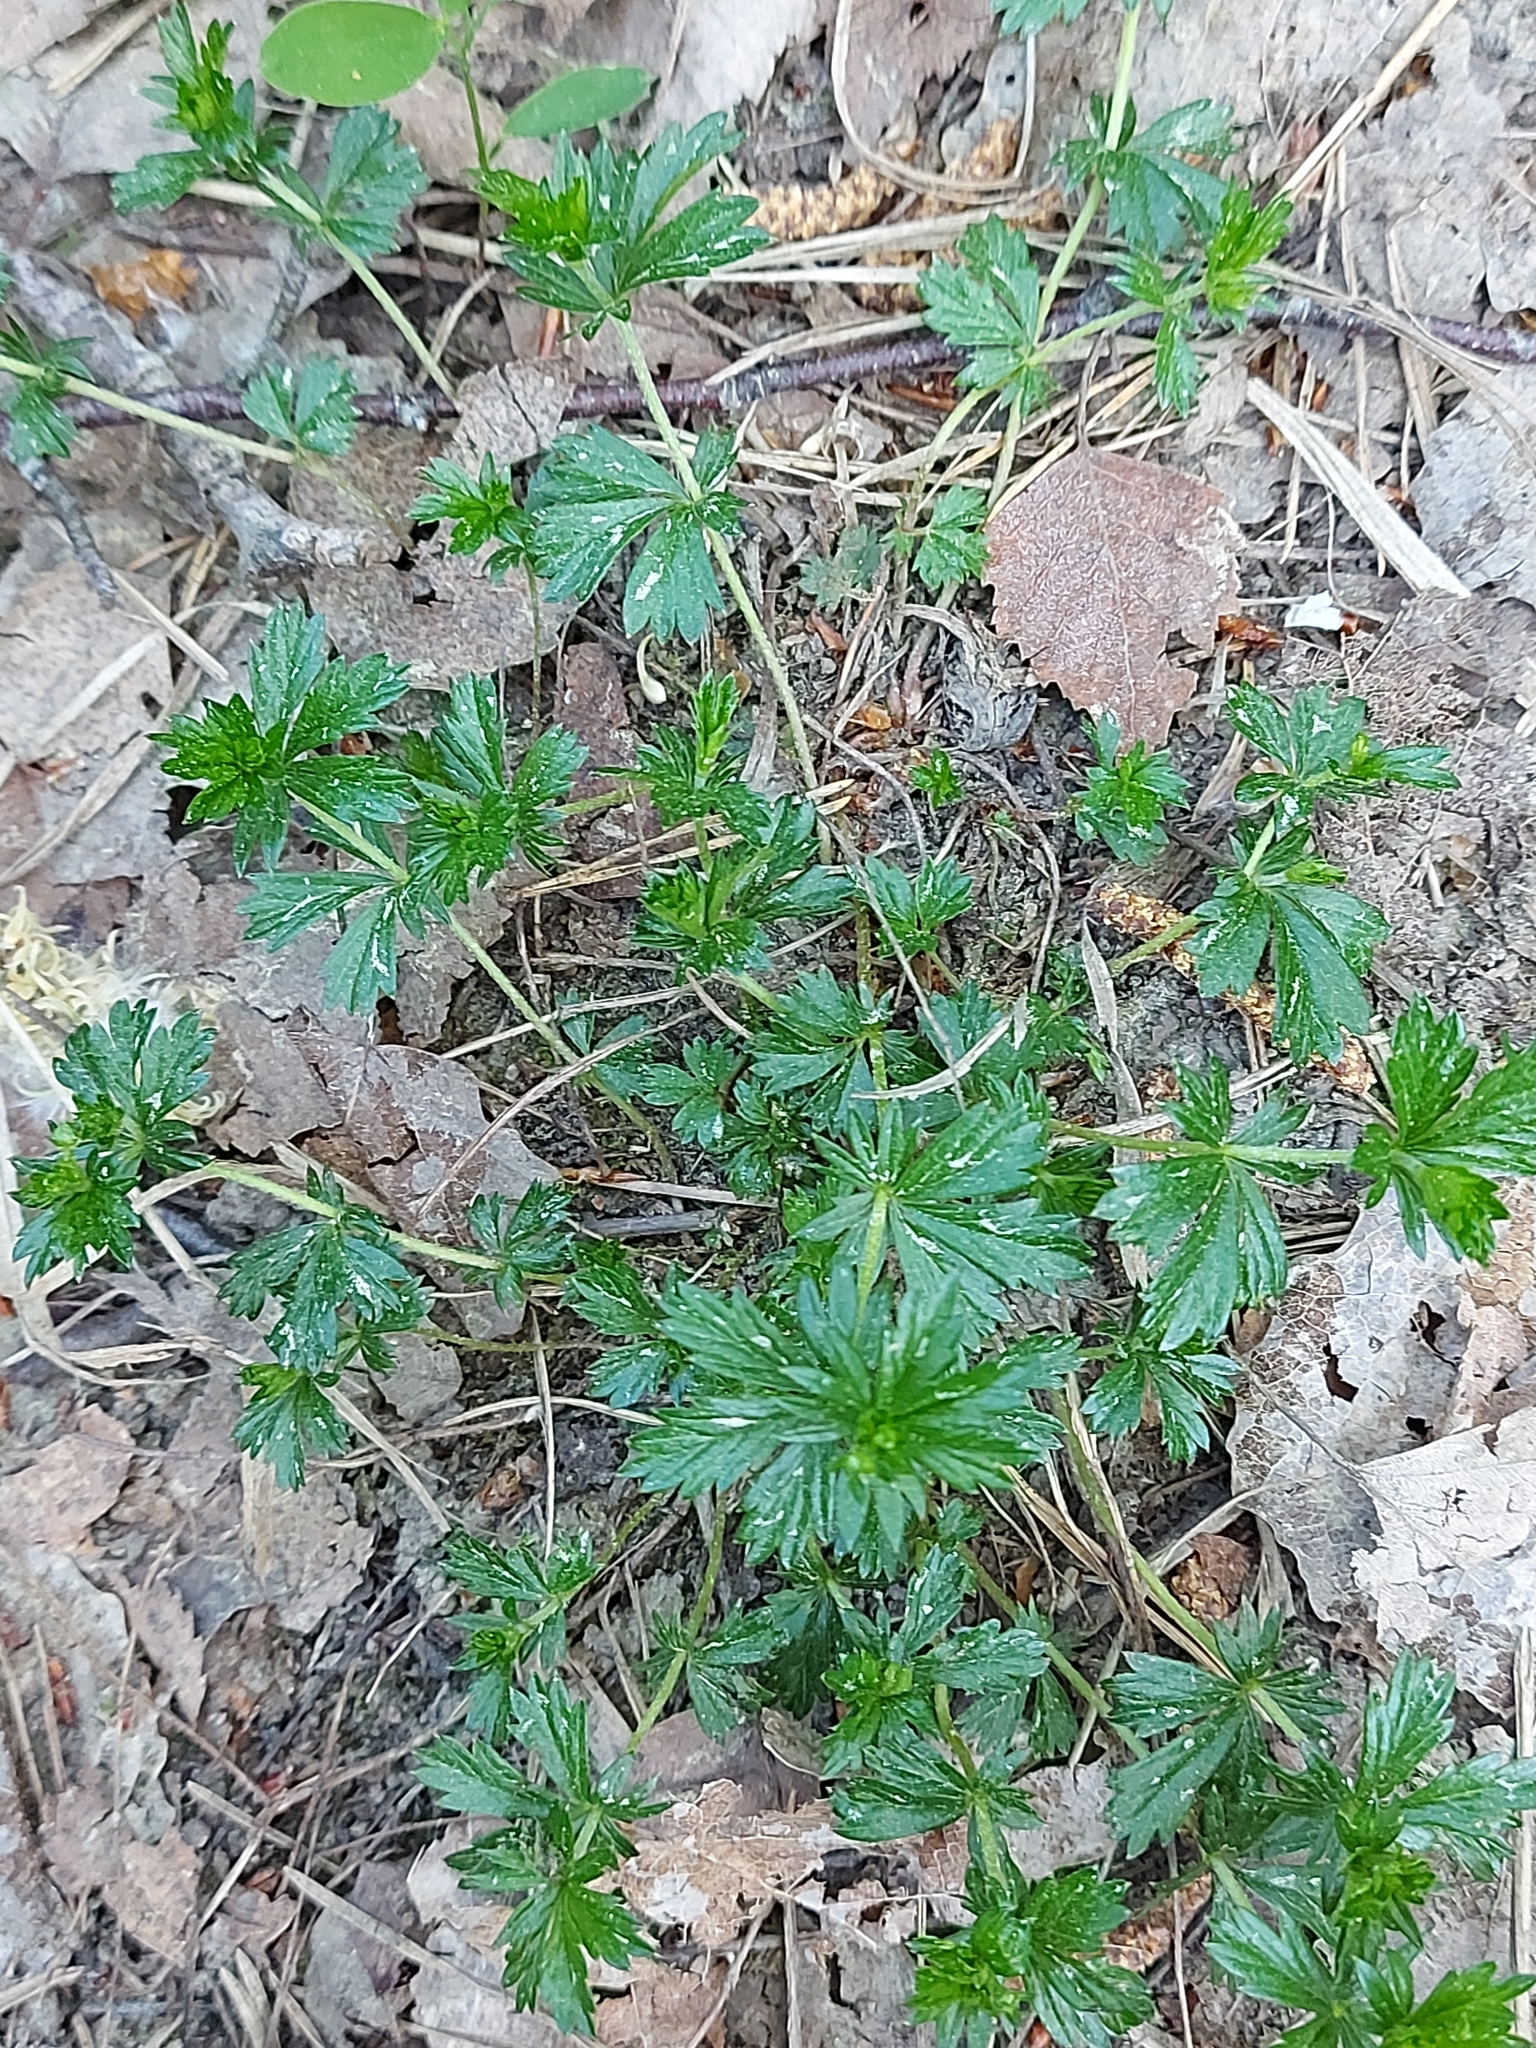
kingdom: Plantae
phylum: Tracheophyta
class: Magnoliopsida
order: Rosales
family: Rosaceae
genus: Potentilla
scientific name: Potentilla erecta
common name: Tormentil
